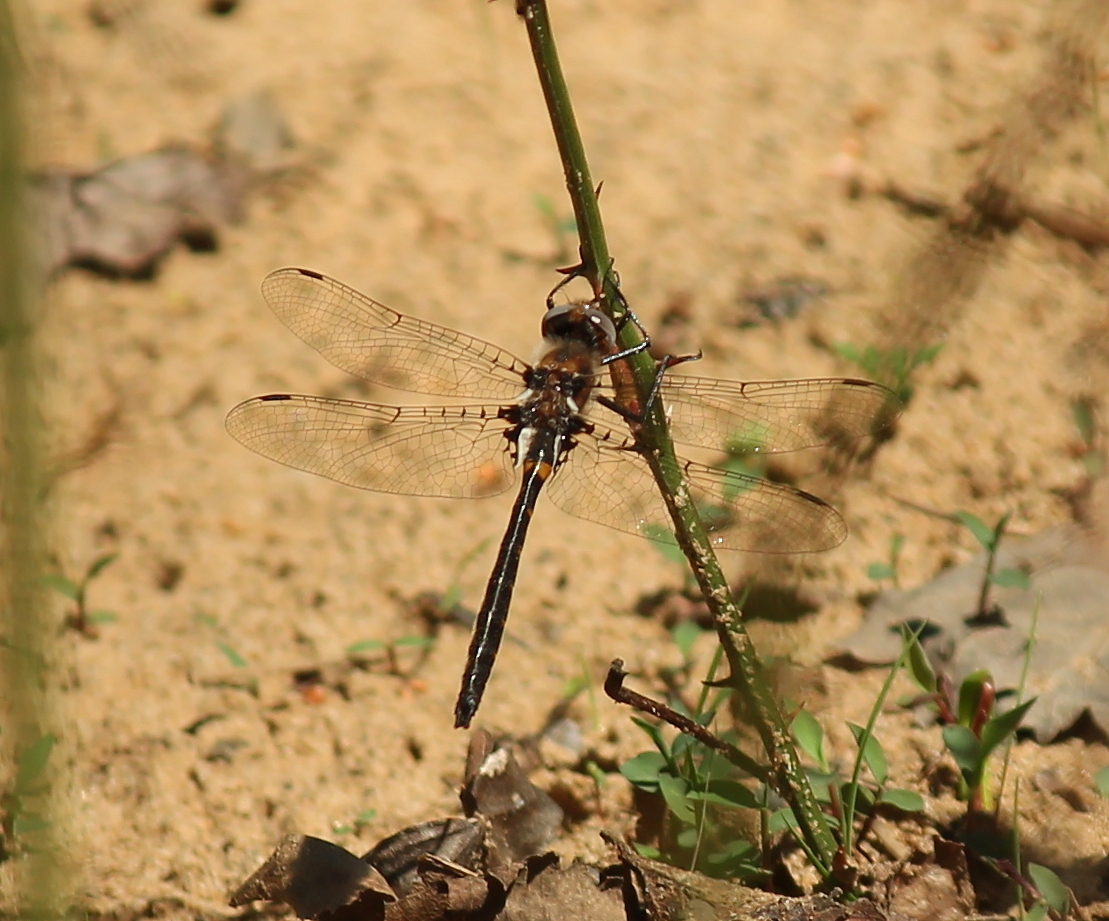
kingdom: Animalia
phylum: Arthropoda
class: Insecta
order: Odonata
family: Corduliidae
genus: Helocordulia
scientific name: Helocordulia selysii
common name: Selys's sundragon
